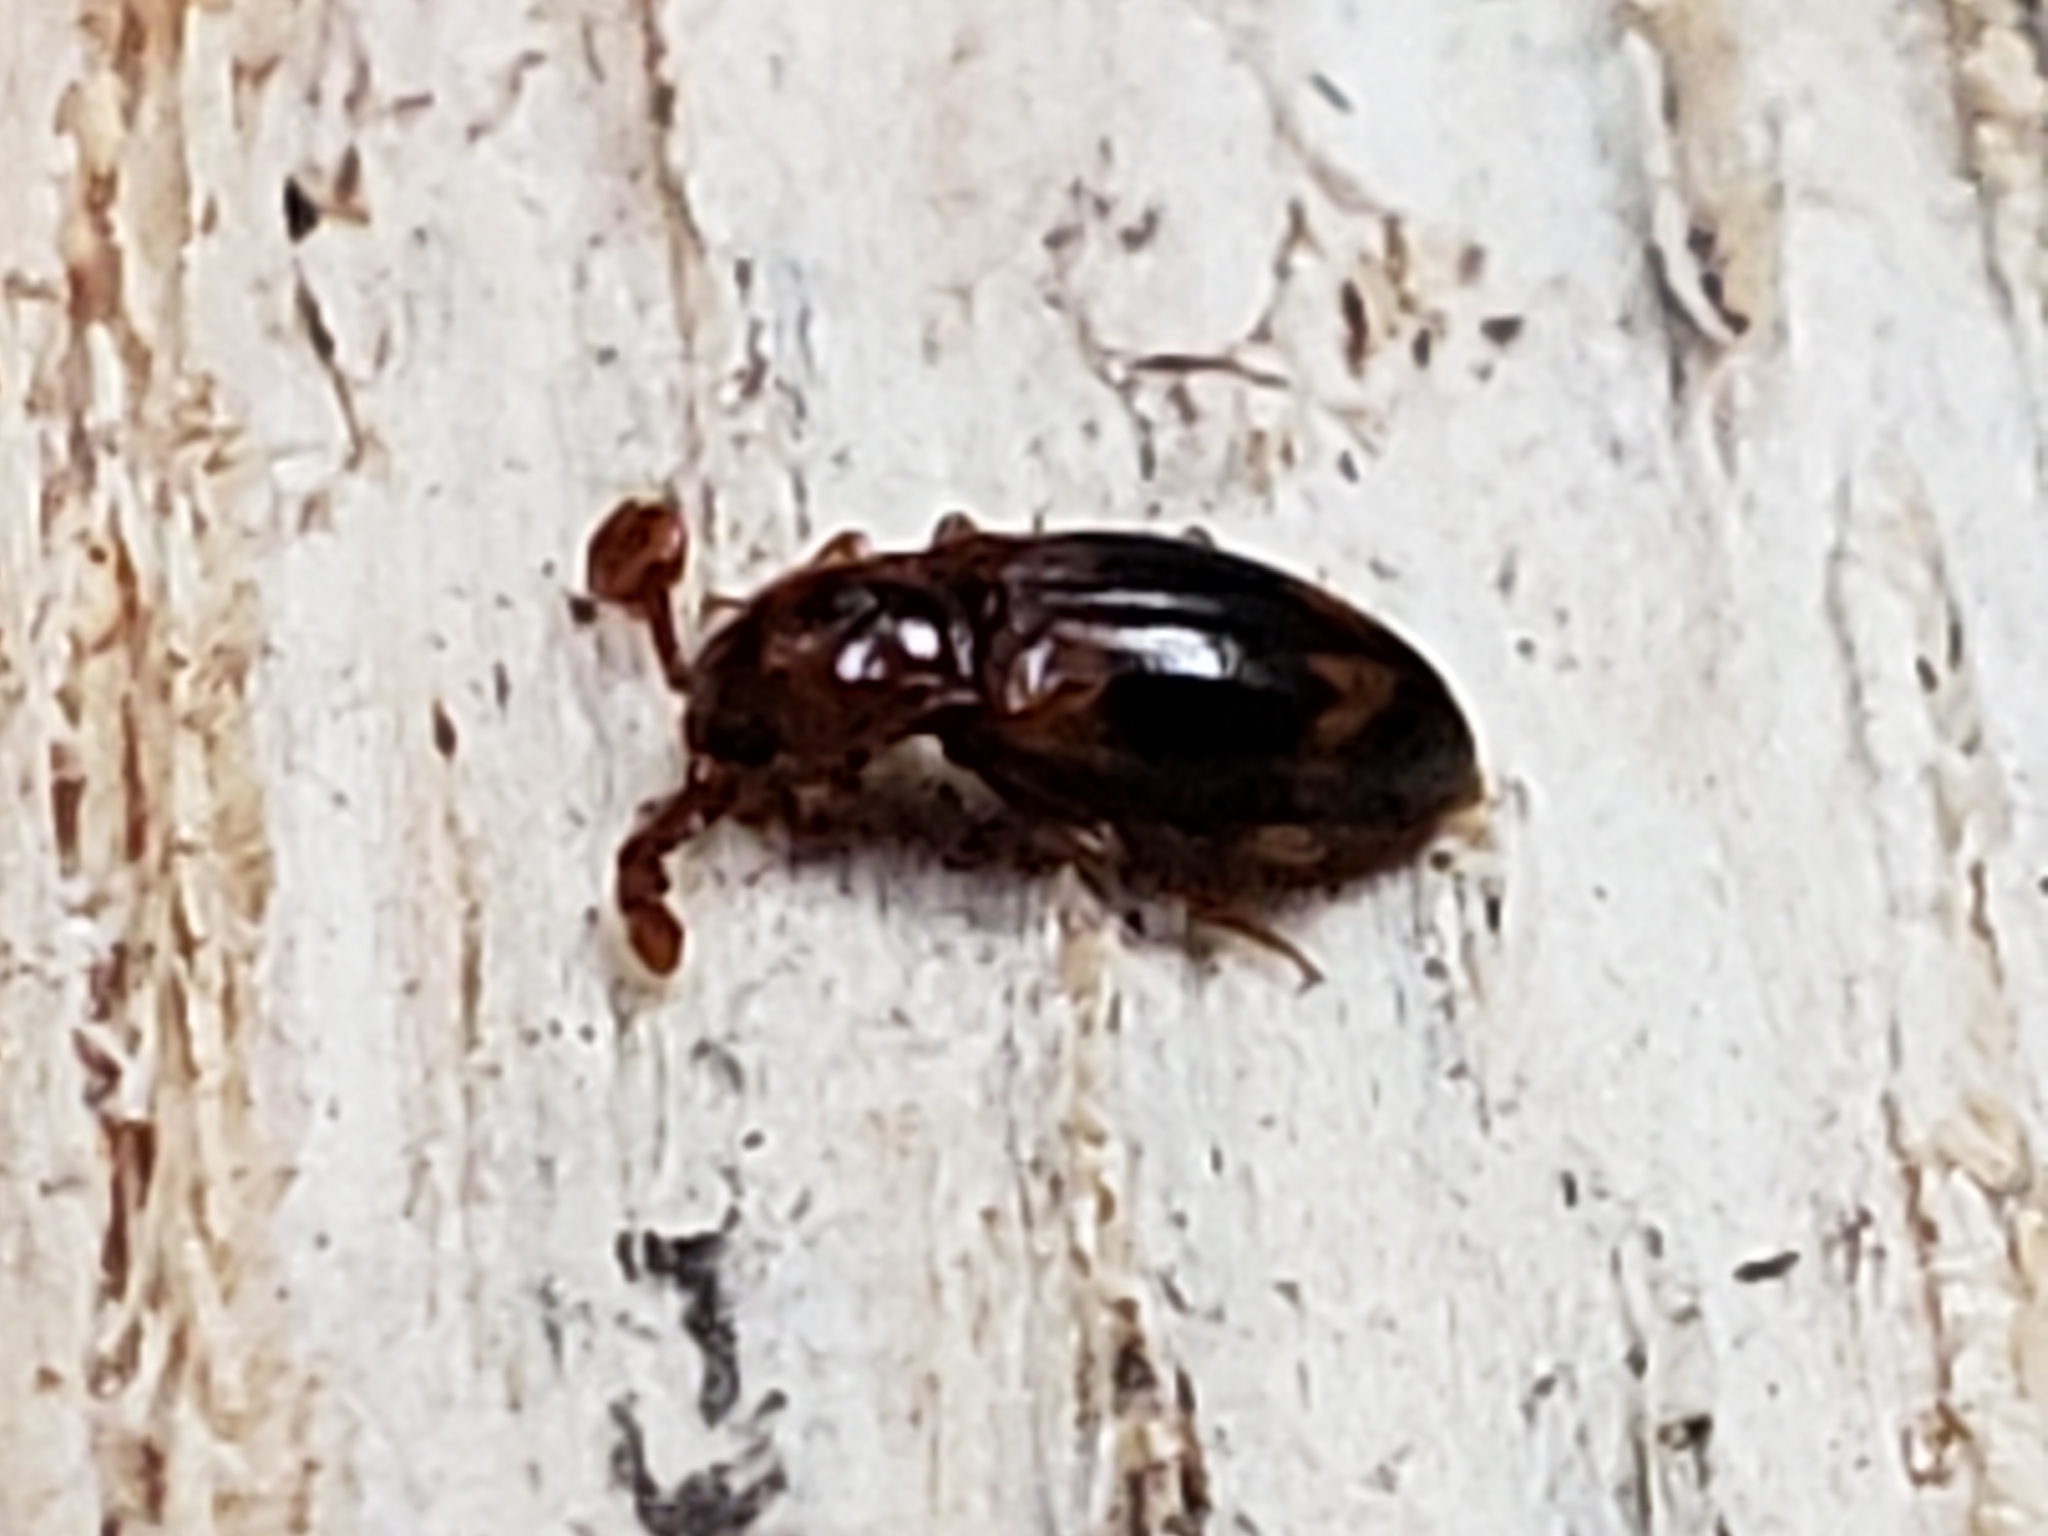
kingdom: Animalia
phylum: Arthropoda
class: Insecta
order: Coleoptera
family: Endomychidae
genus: Phymaphora
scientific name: Phymaphora pulchella
